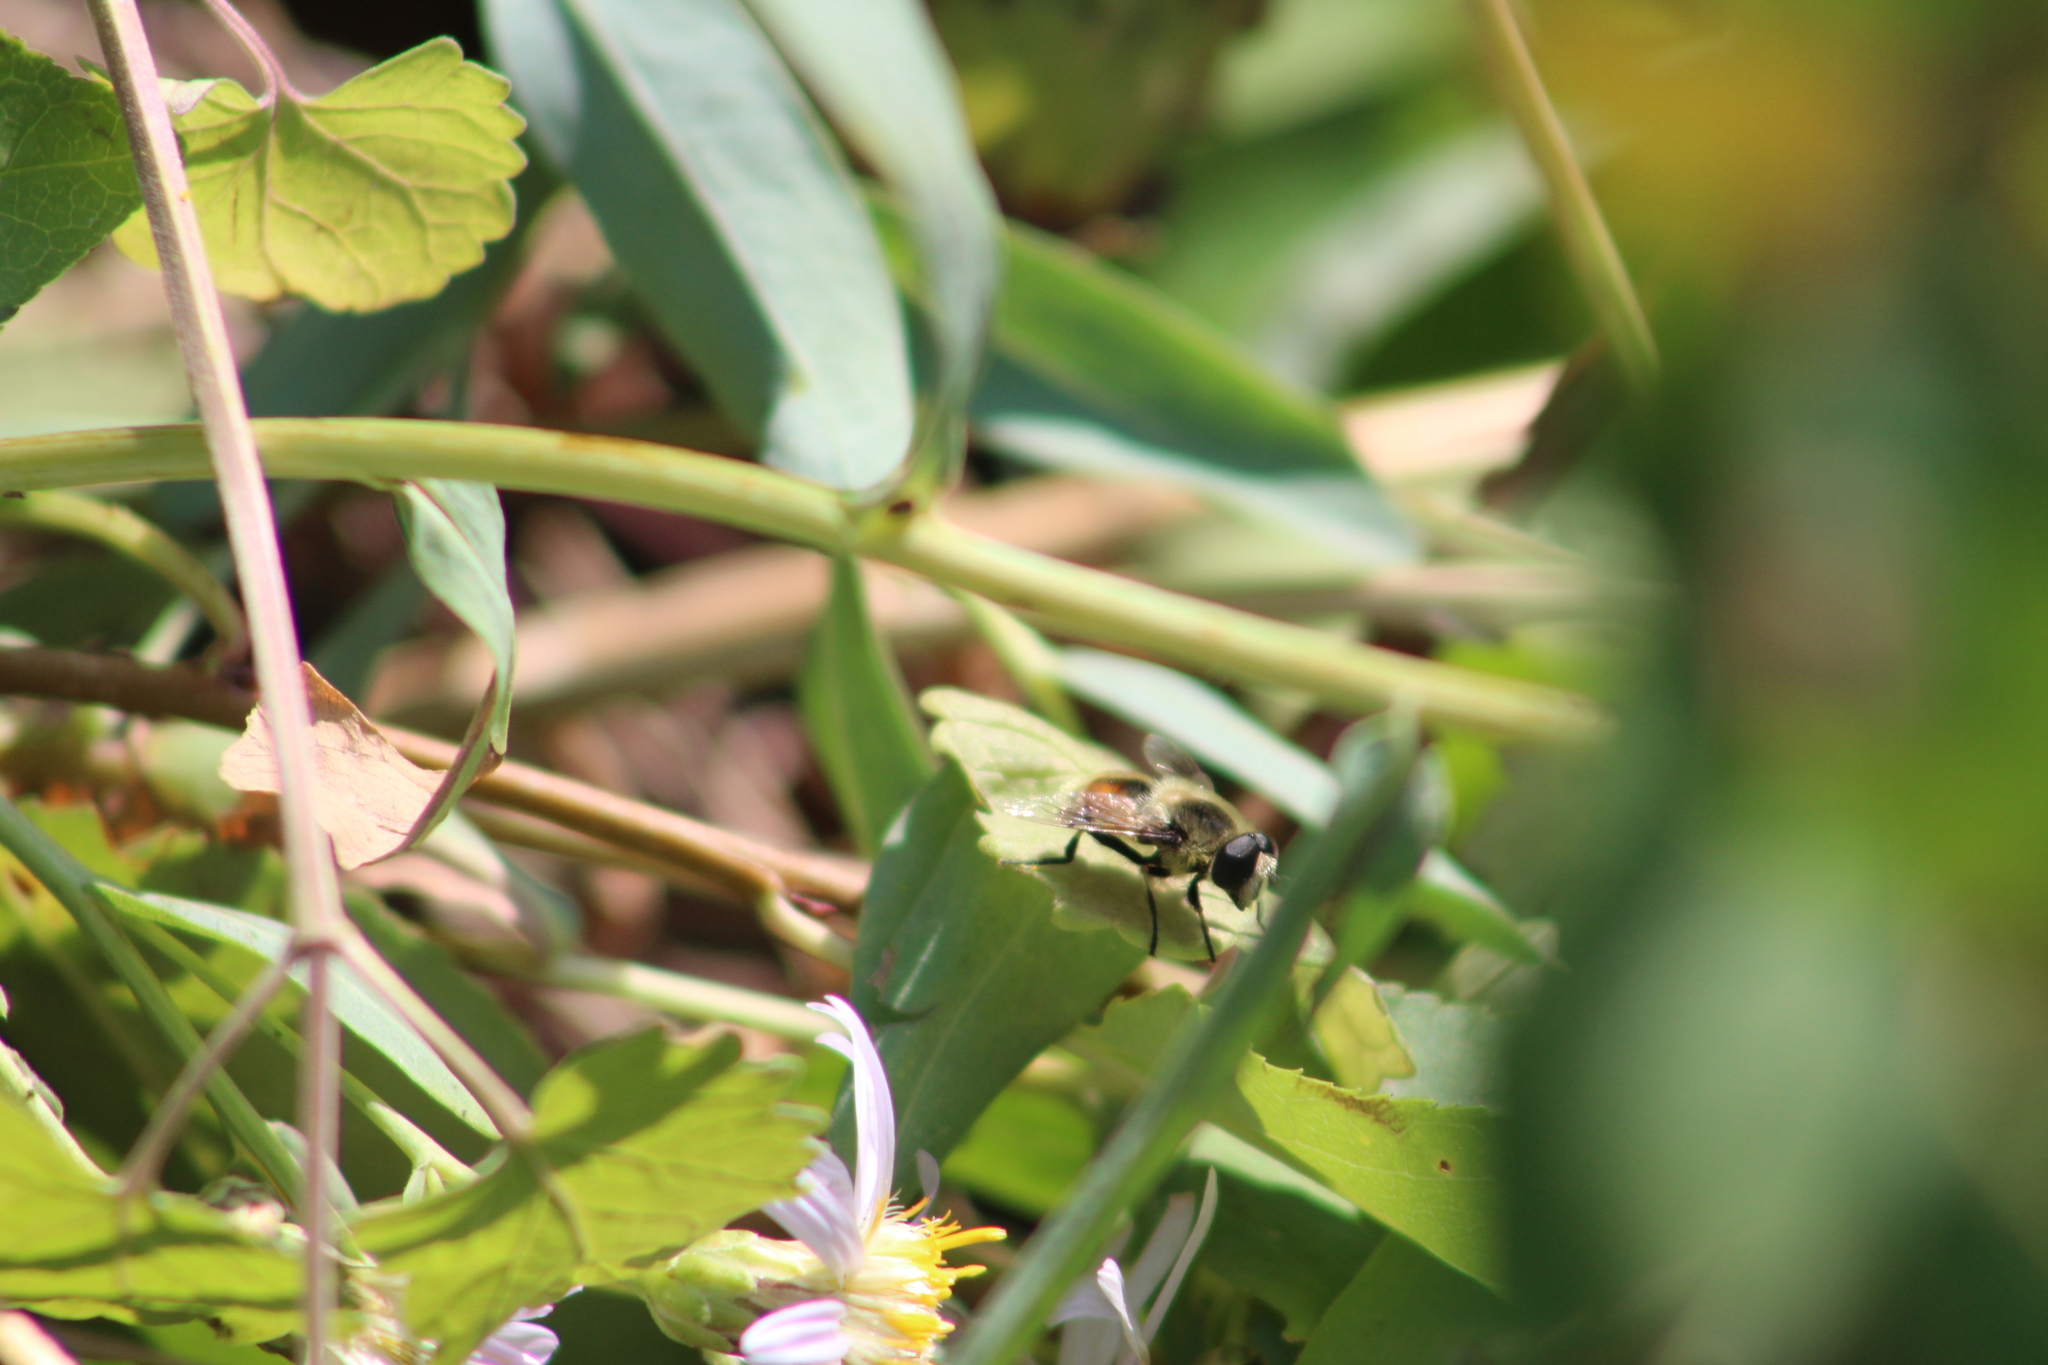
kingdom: Animalia
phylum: Arthropoda
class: Insecta
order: Diptera
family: Syrphidae
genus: Eristalis
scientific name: Eristalis anthophorina
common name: Orange-spotted drone fly
